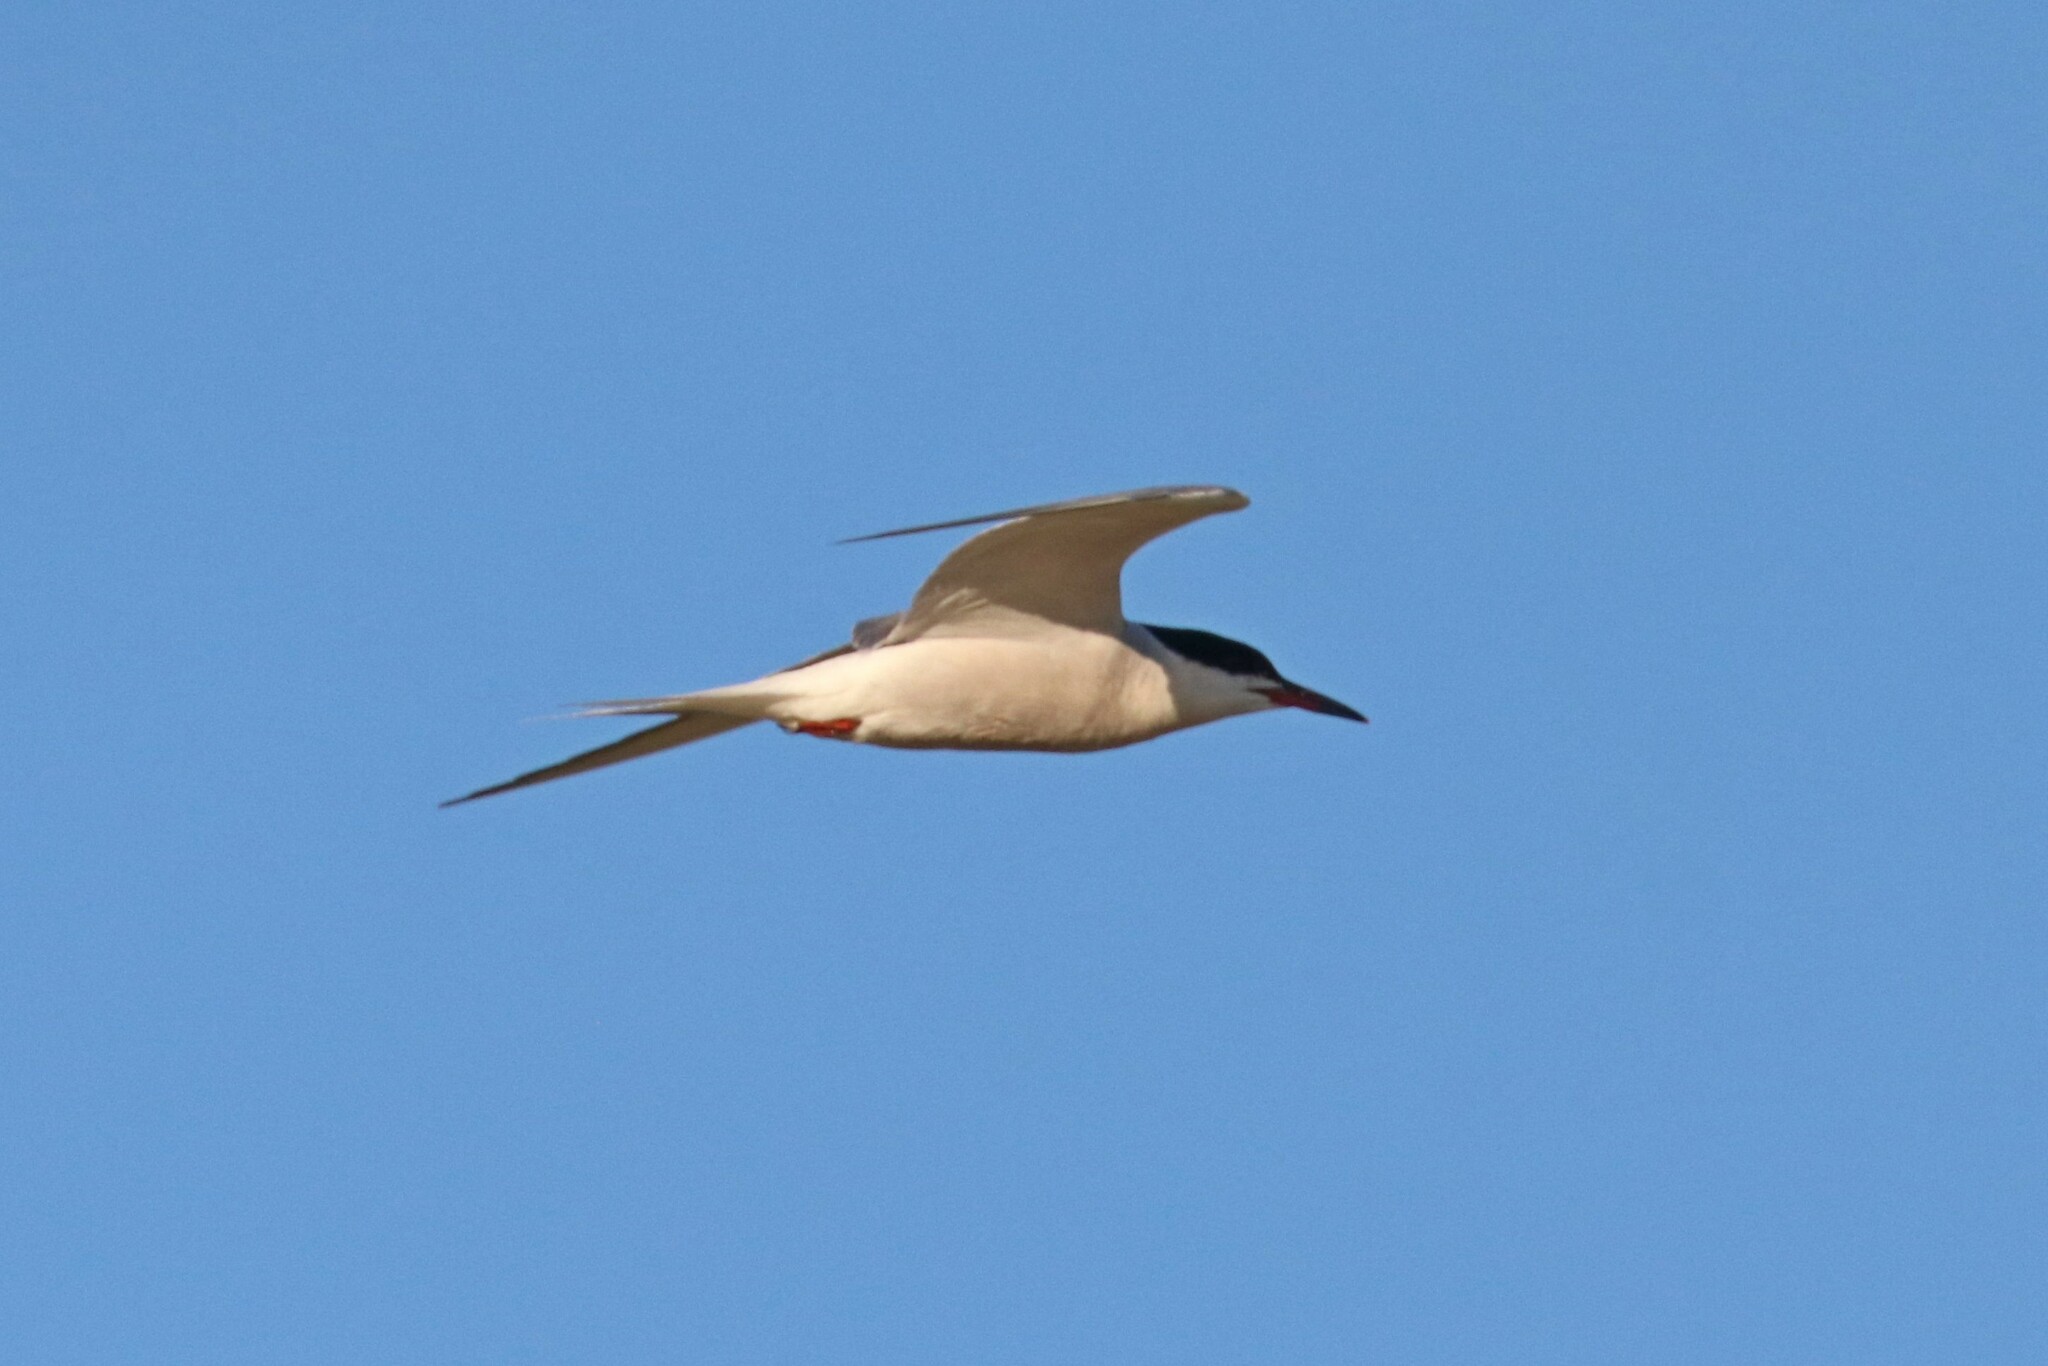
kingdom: Animalia
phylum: Chordata
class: Aves
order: Charadriiformes
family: Laridae
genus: Sterna
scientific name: Sterna hirundo
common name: Common tern
